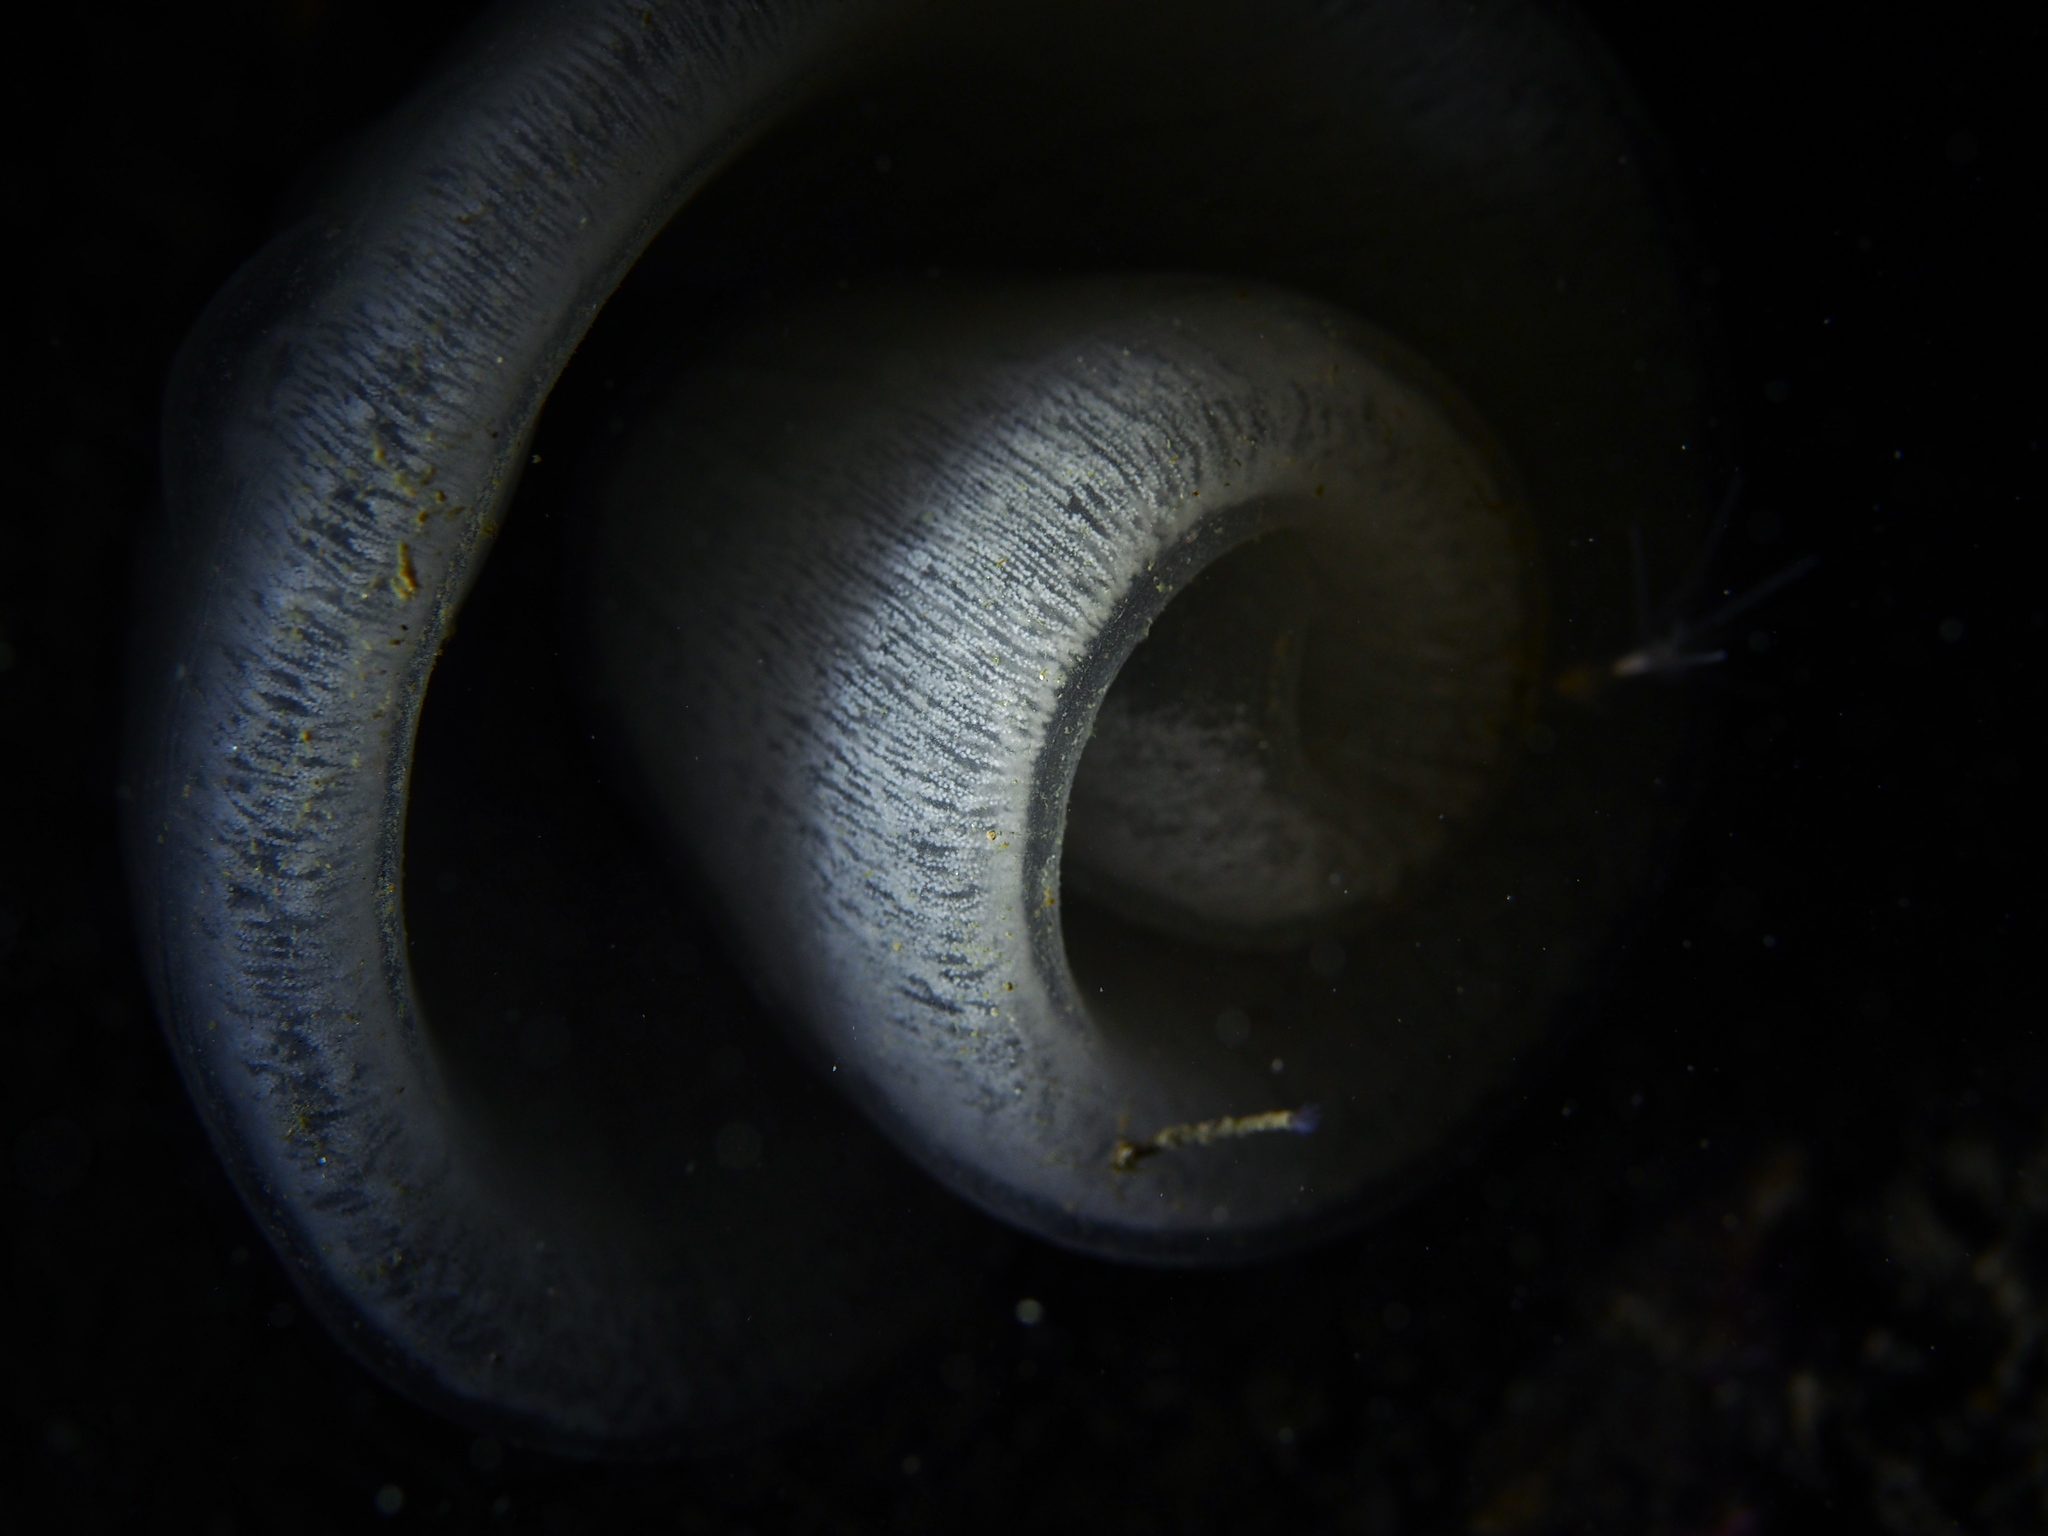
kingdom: Animalia
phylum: Mollusca
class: Gastropoda
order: Pleurobranchida
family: Pleurobranchidae
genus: Pleurobranchus
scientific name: Pleurobranchus membranaceus
